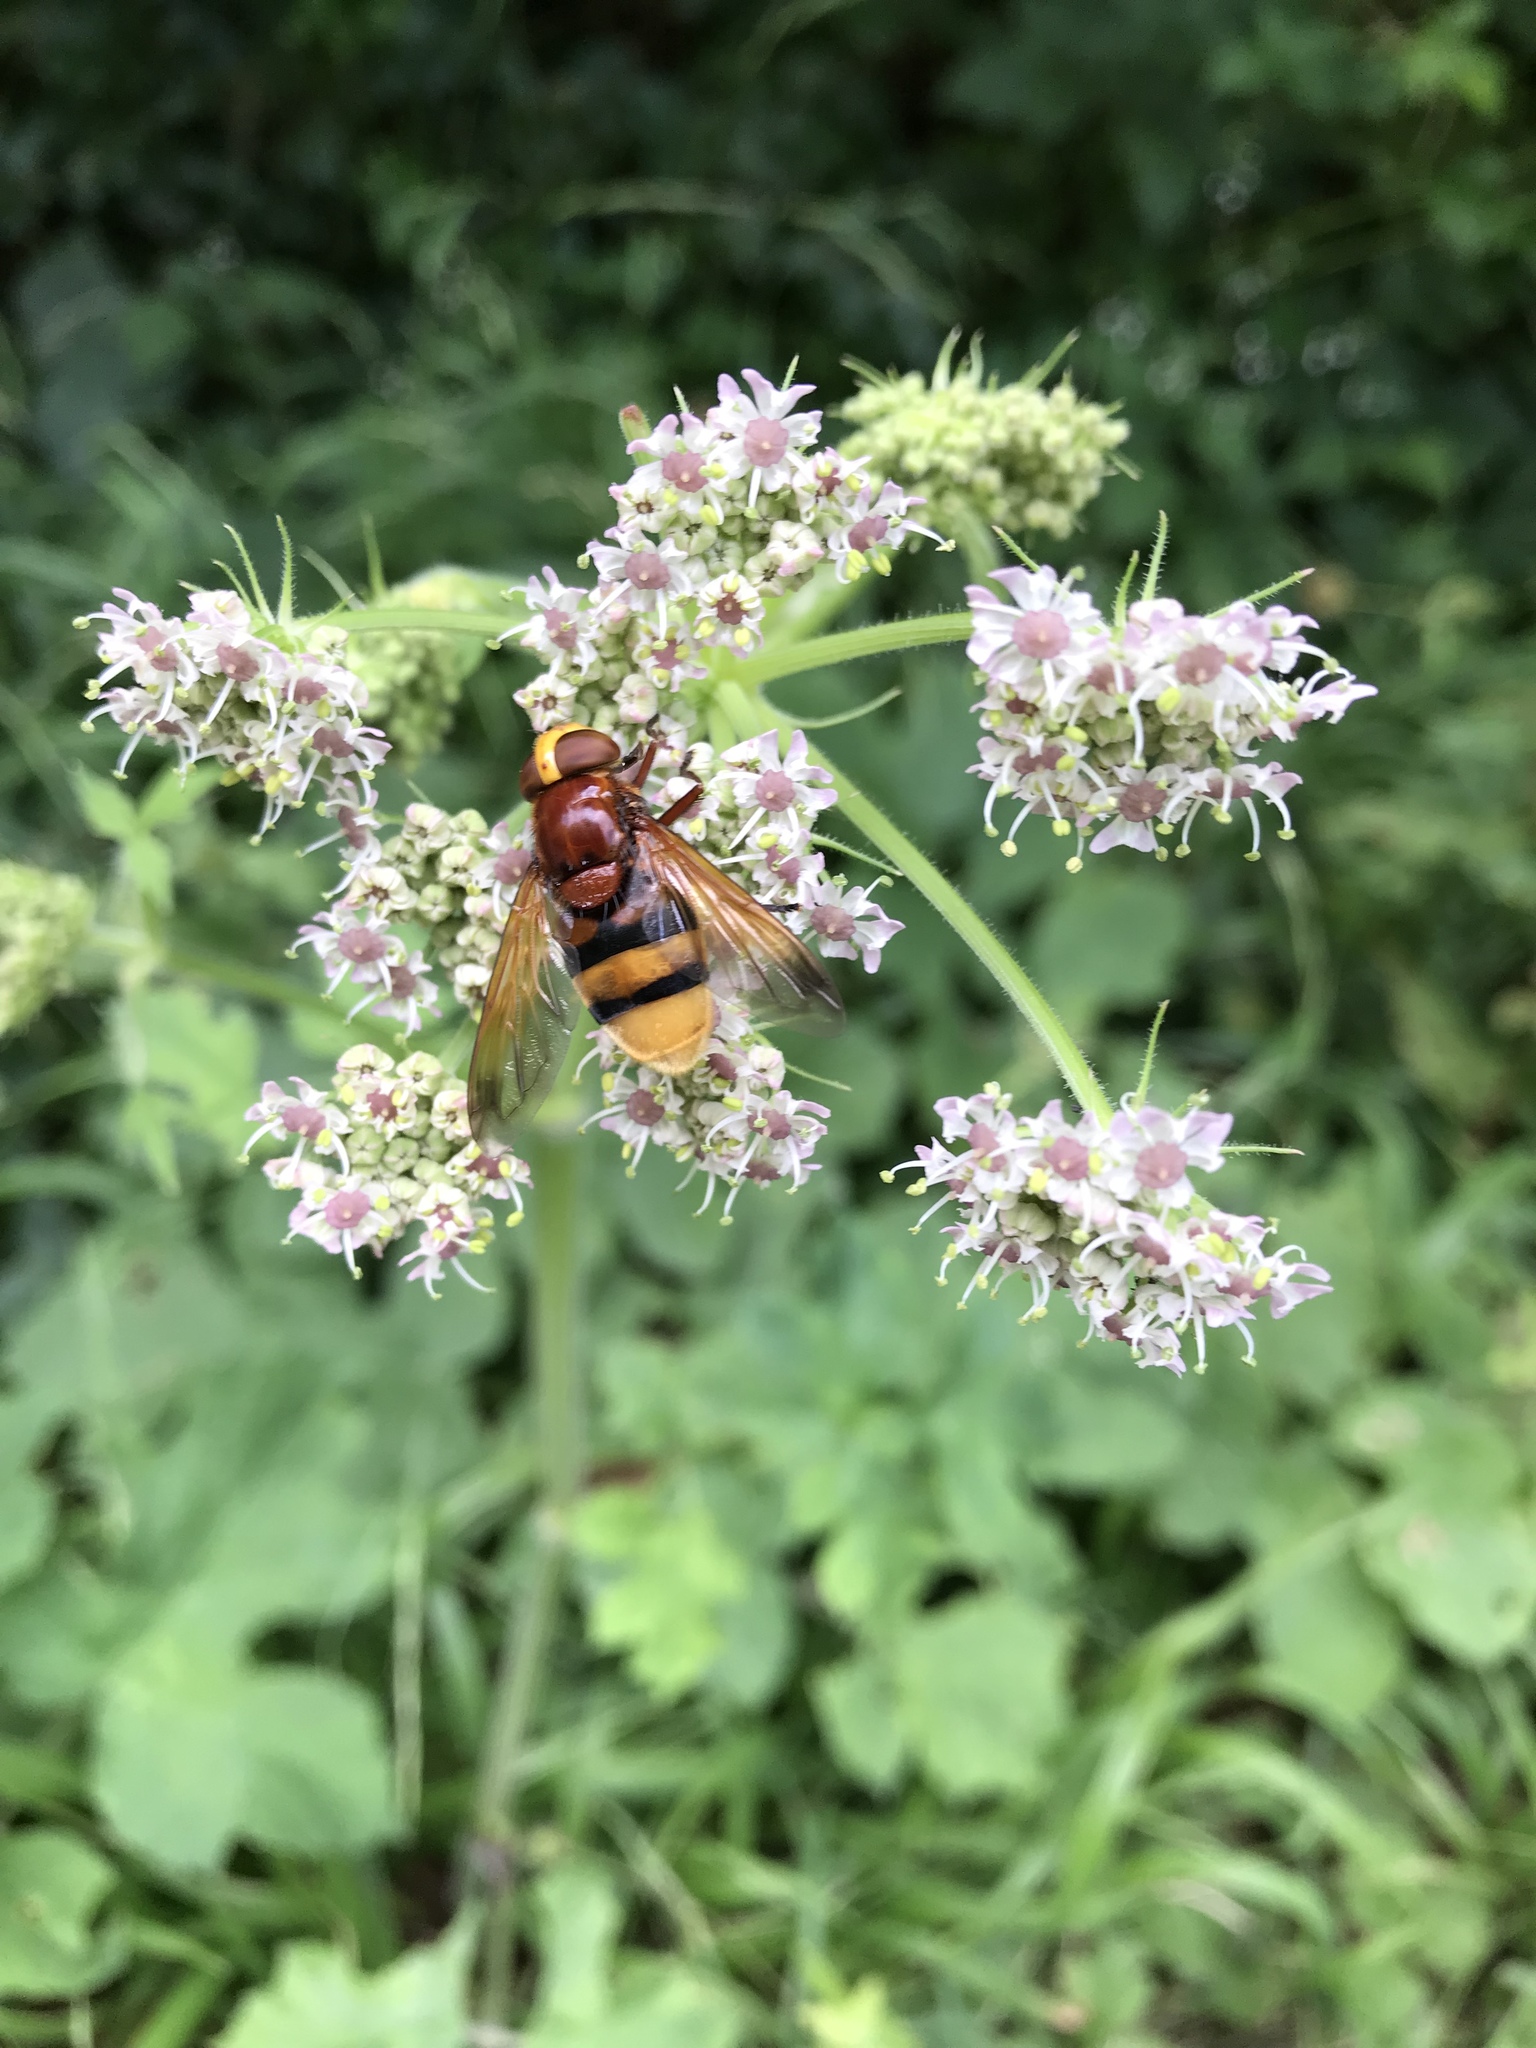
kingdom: Animalia
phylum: Arthropoda
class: Insecta
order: Diptera
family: Syrphidae
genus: Volucella
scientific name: Volucella zonaria
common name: Hornet hoverfly
